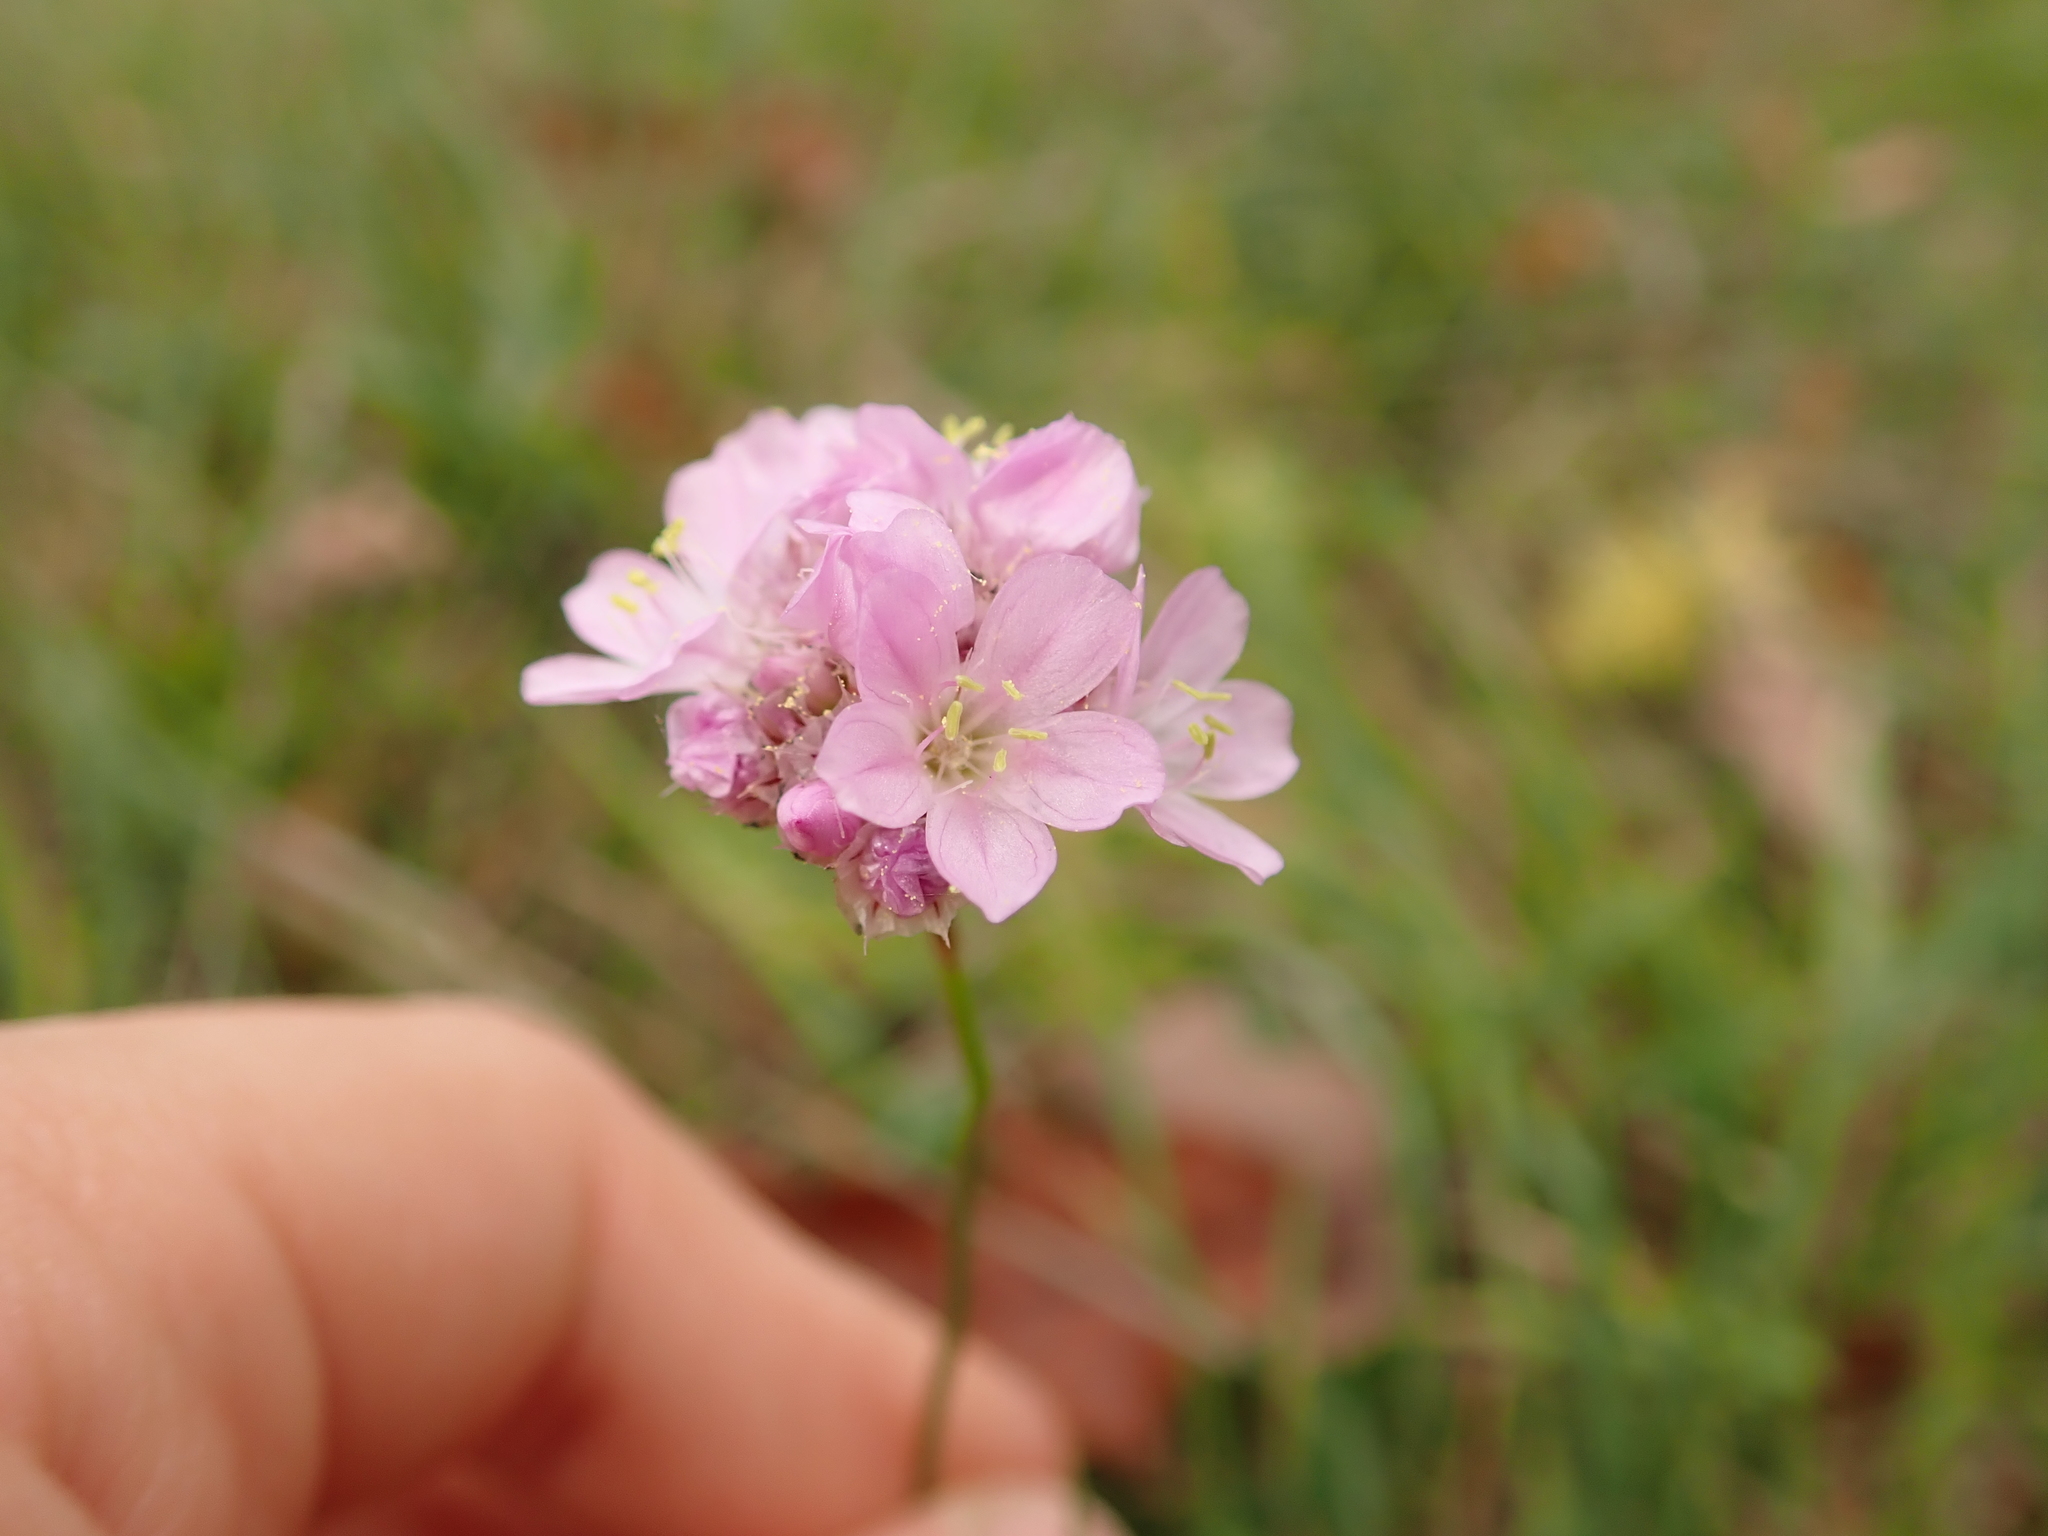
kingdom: Plantae
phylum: Tracheophyta
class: Magnoliopsida
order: Caryophyllales
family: Plumbaginaceae
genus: Armeria
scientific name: Armeria maritima
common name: Thrift
